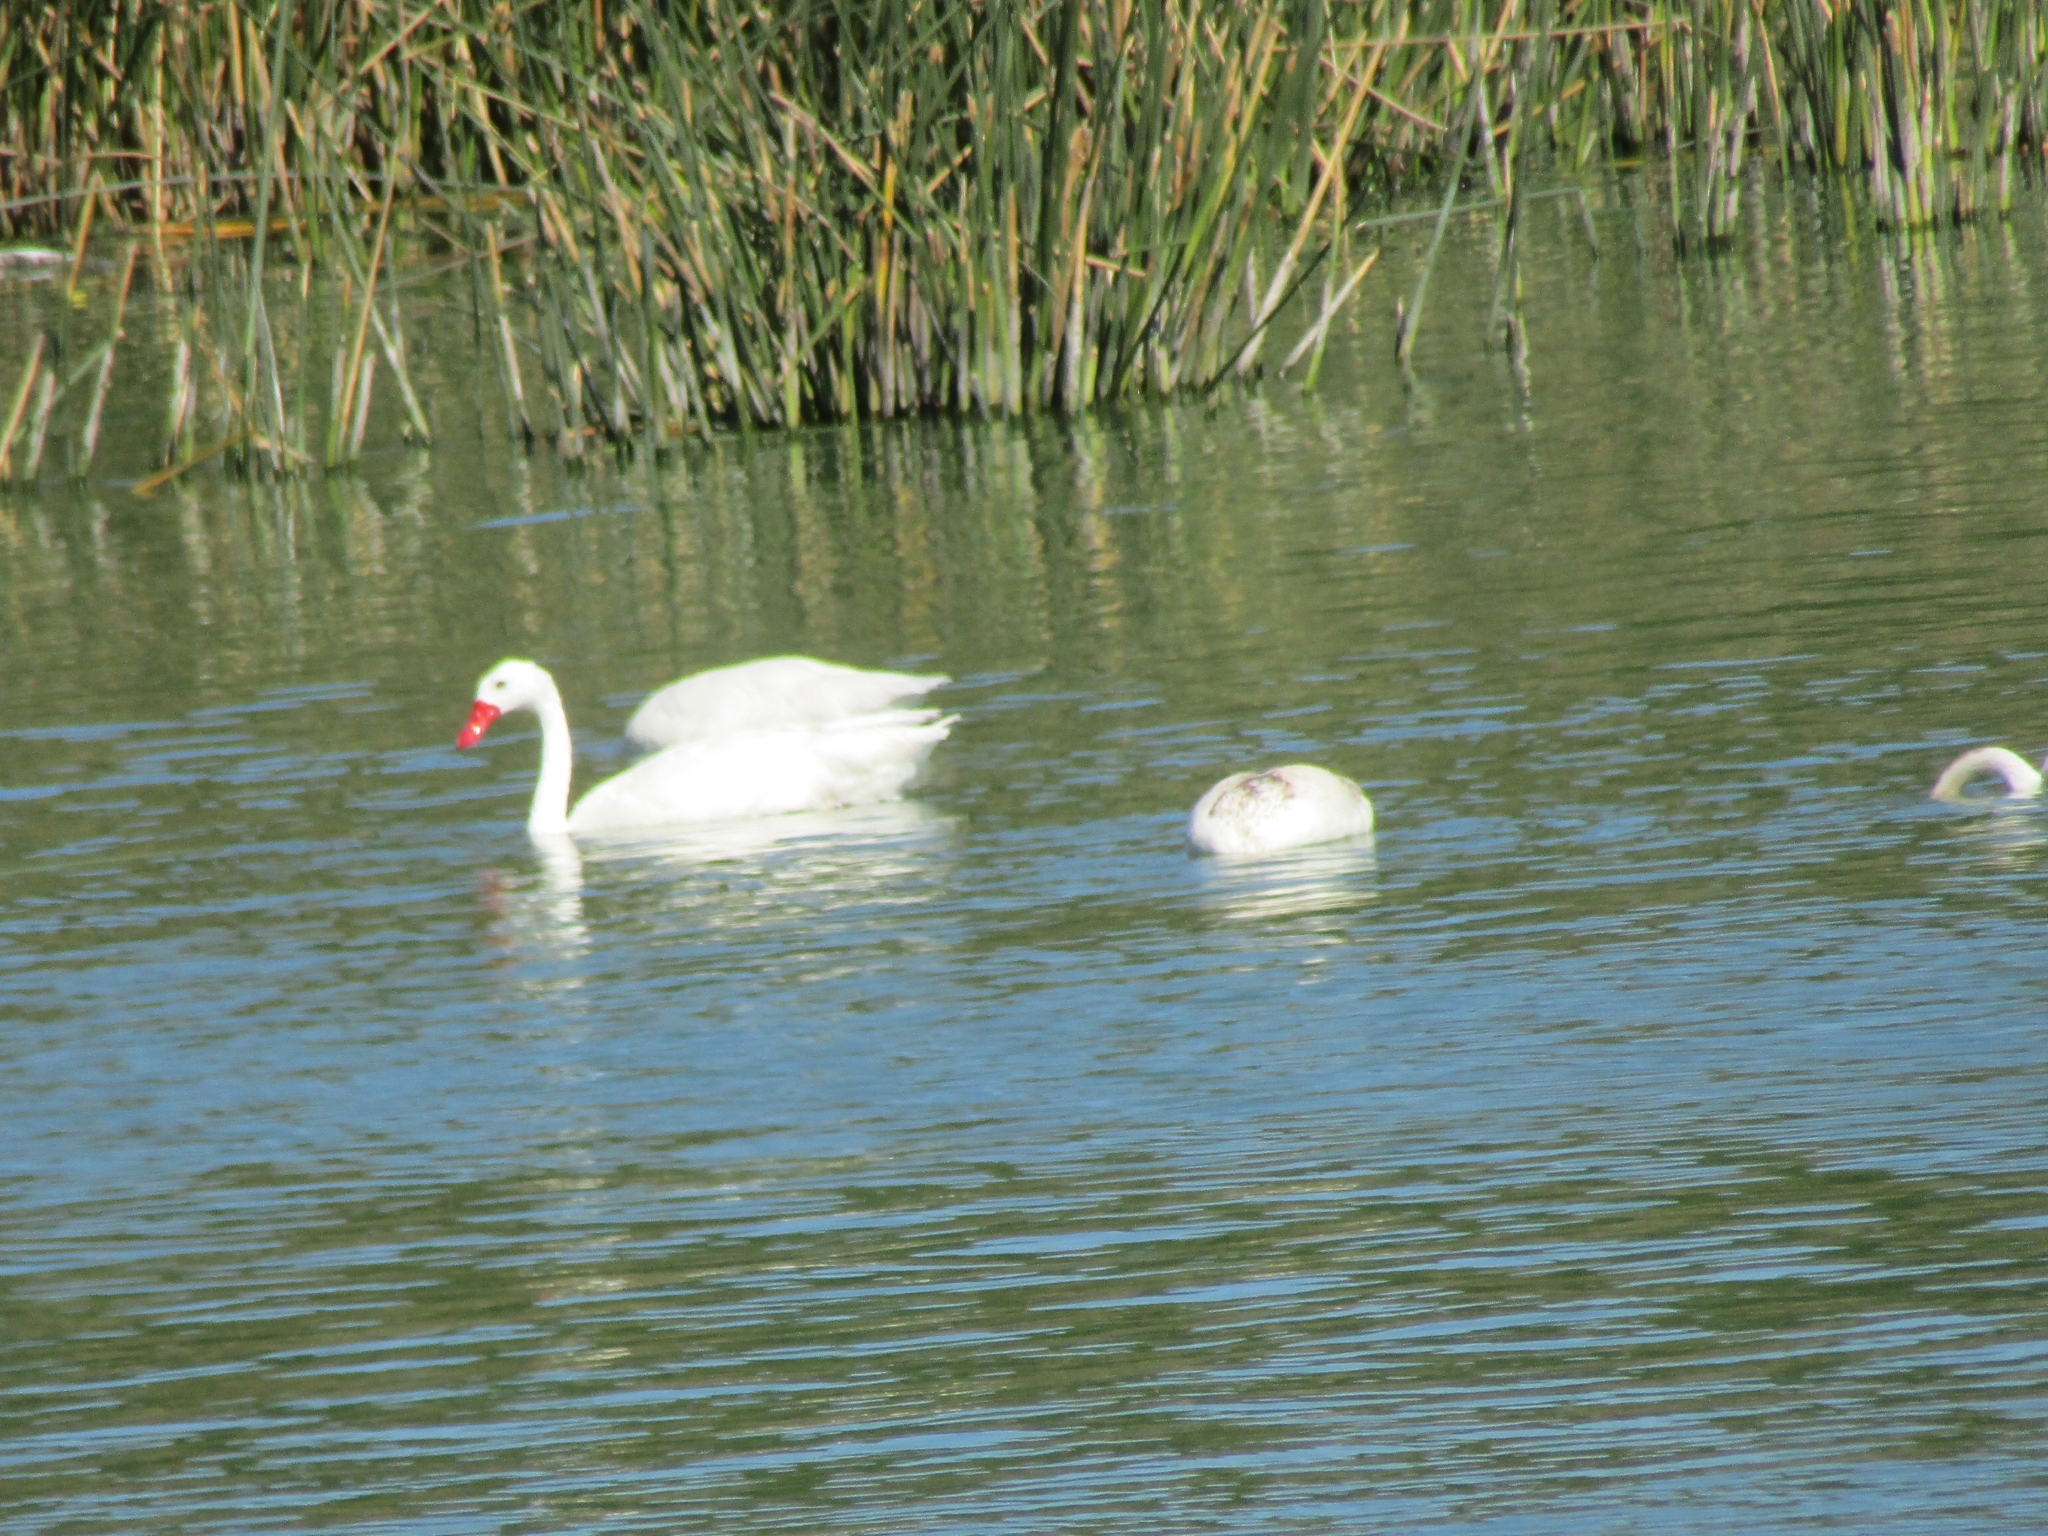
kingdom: Animalia
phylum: Chordata
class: Aves
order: Anseriformes
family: Anatidae
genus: Coscoroba
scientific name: Coscoroba coscoroba
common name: Coscoroba swan
